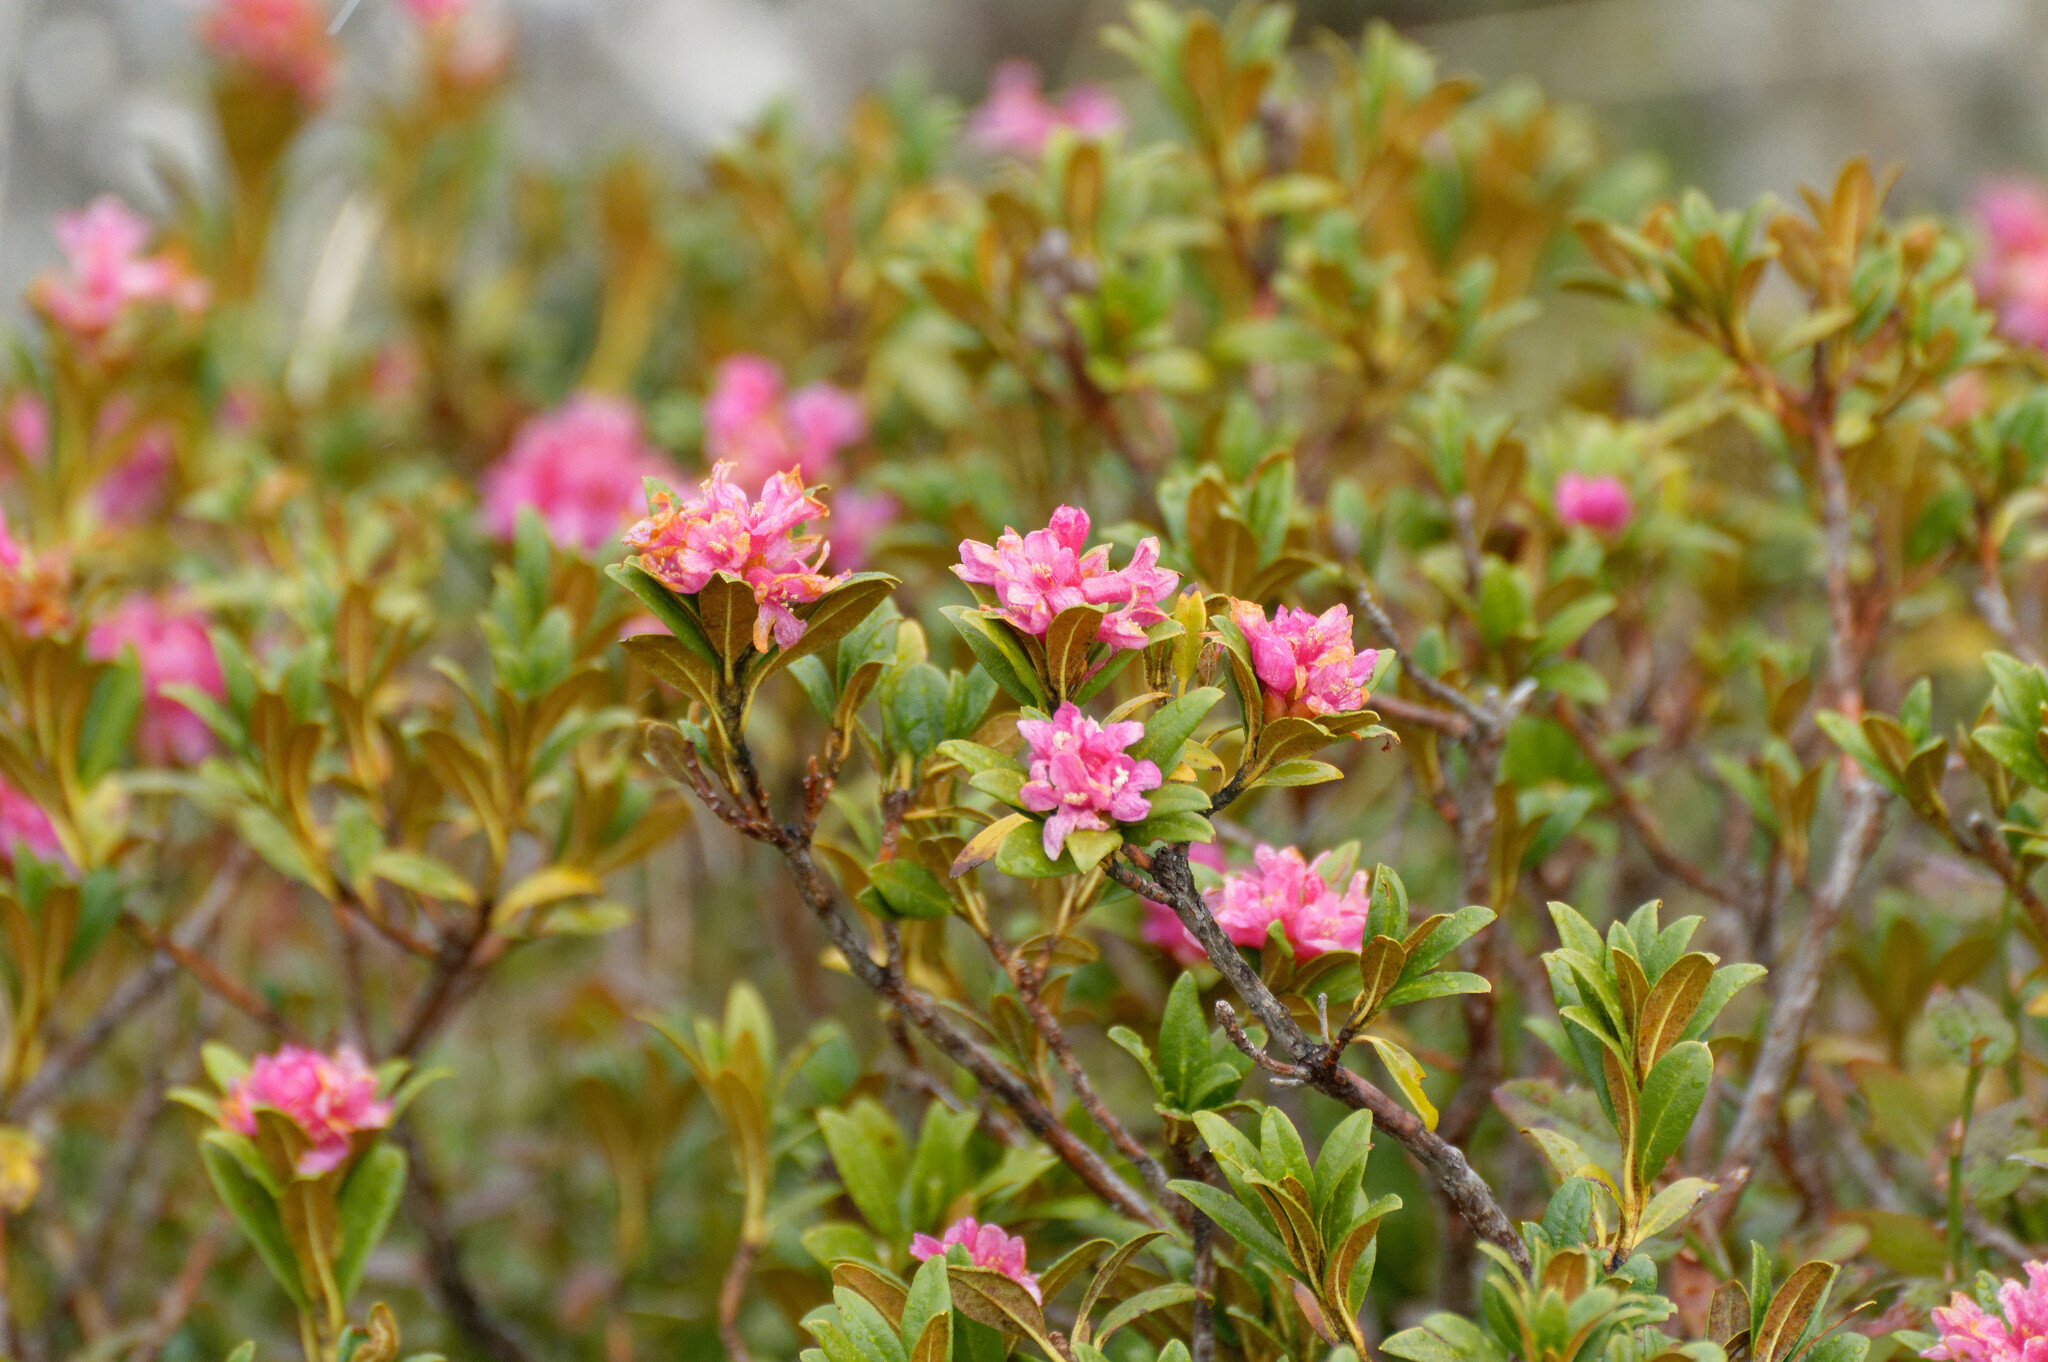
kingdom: Plantae
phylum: Tracheophyta
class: Magnoliopsida
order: Ericales
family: Ericaceae
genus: Rhododendron
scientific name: Rhododendron ferrugineum
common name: Alpenrose
